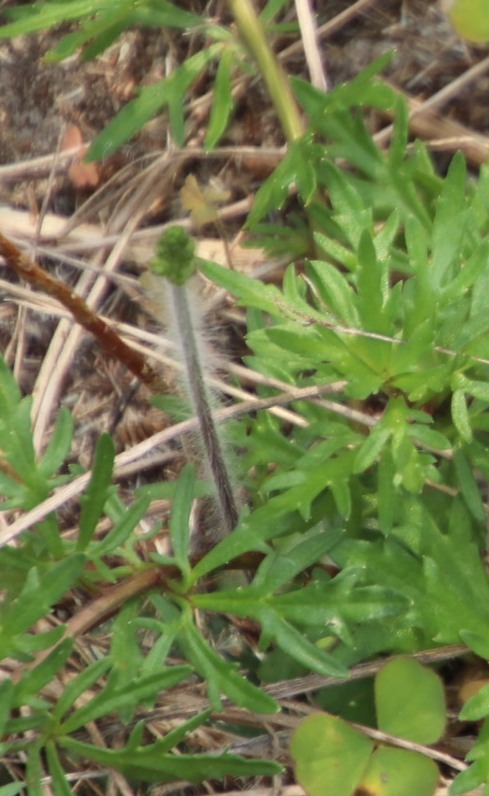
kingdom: Plantae
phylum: Tracheophyta
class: Liliopsida
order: Asparagales
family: Orchidaceae
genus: Holothrix
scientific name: Holothrix villosa
